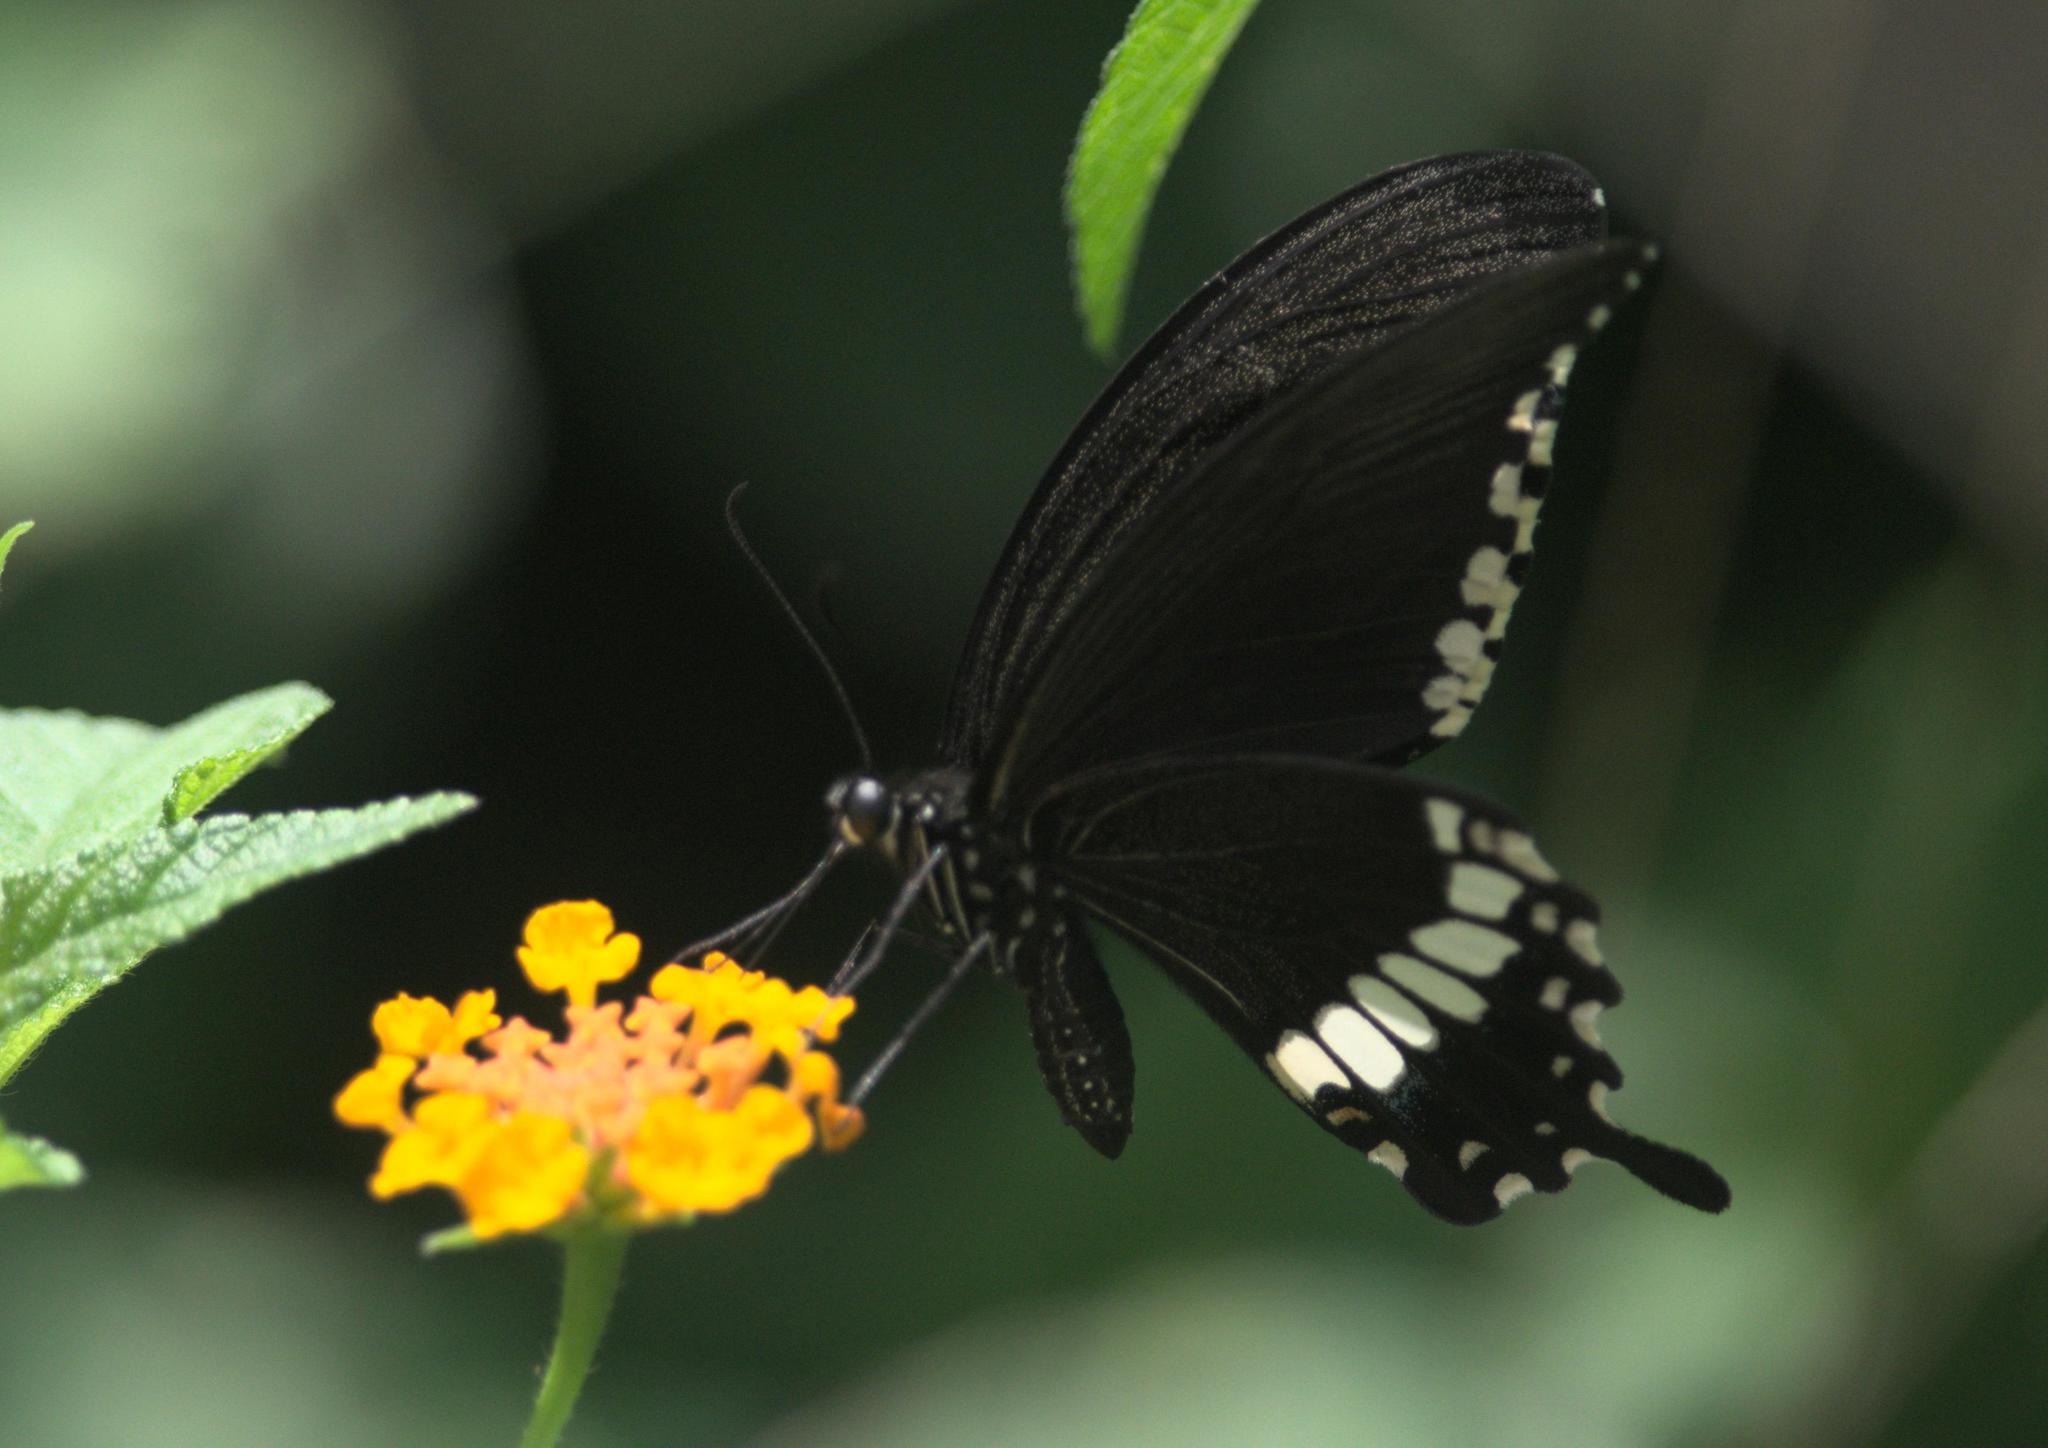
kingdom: Animalia
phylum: Arthropoda
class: Insecta
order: Lepidoptera
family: Papilionidae
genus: Papilio
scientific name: Papilio polytes
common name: Common mormon
